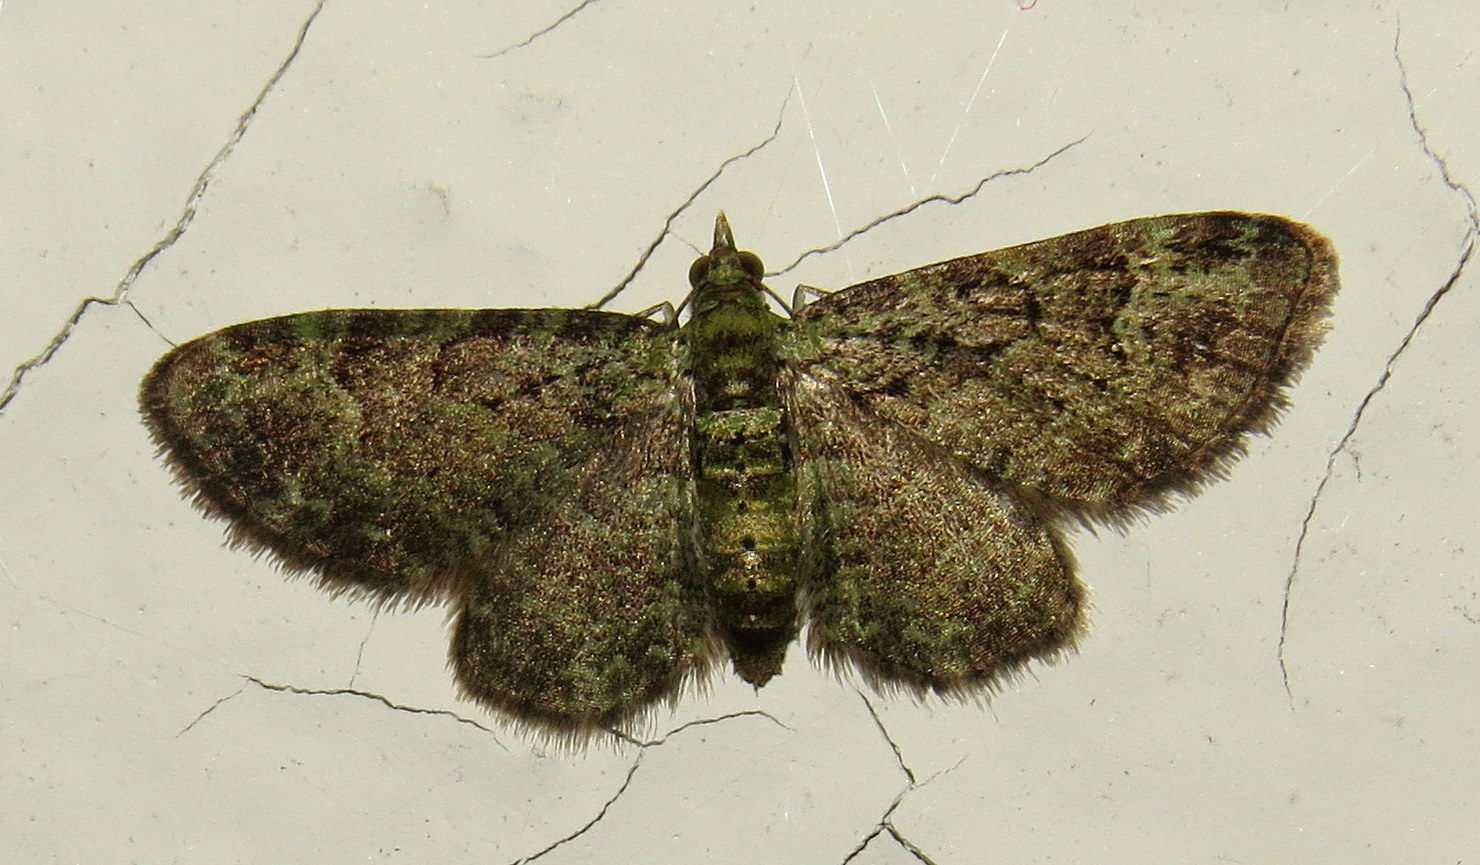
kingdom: Animalia
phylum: Arthropoda
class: Insecta
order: Lepidoptera
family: Geometridae
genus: Pasiphila
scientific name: Pasiphila rectangulata
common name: Green pug
